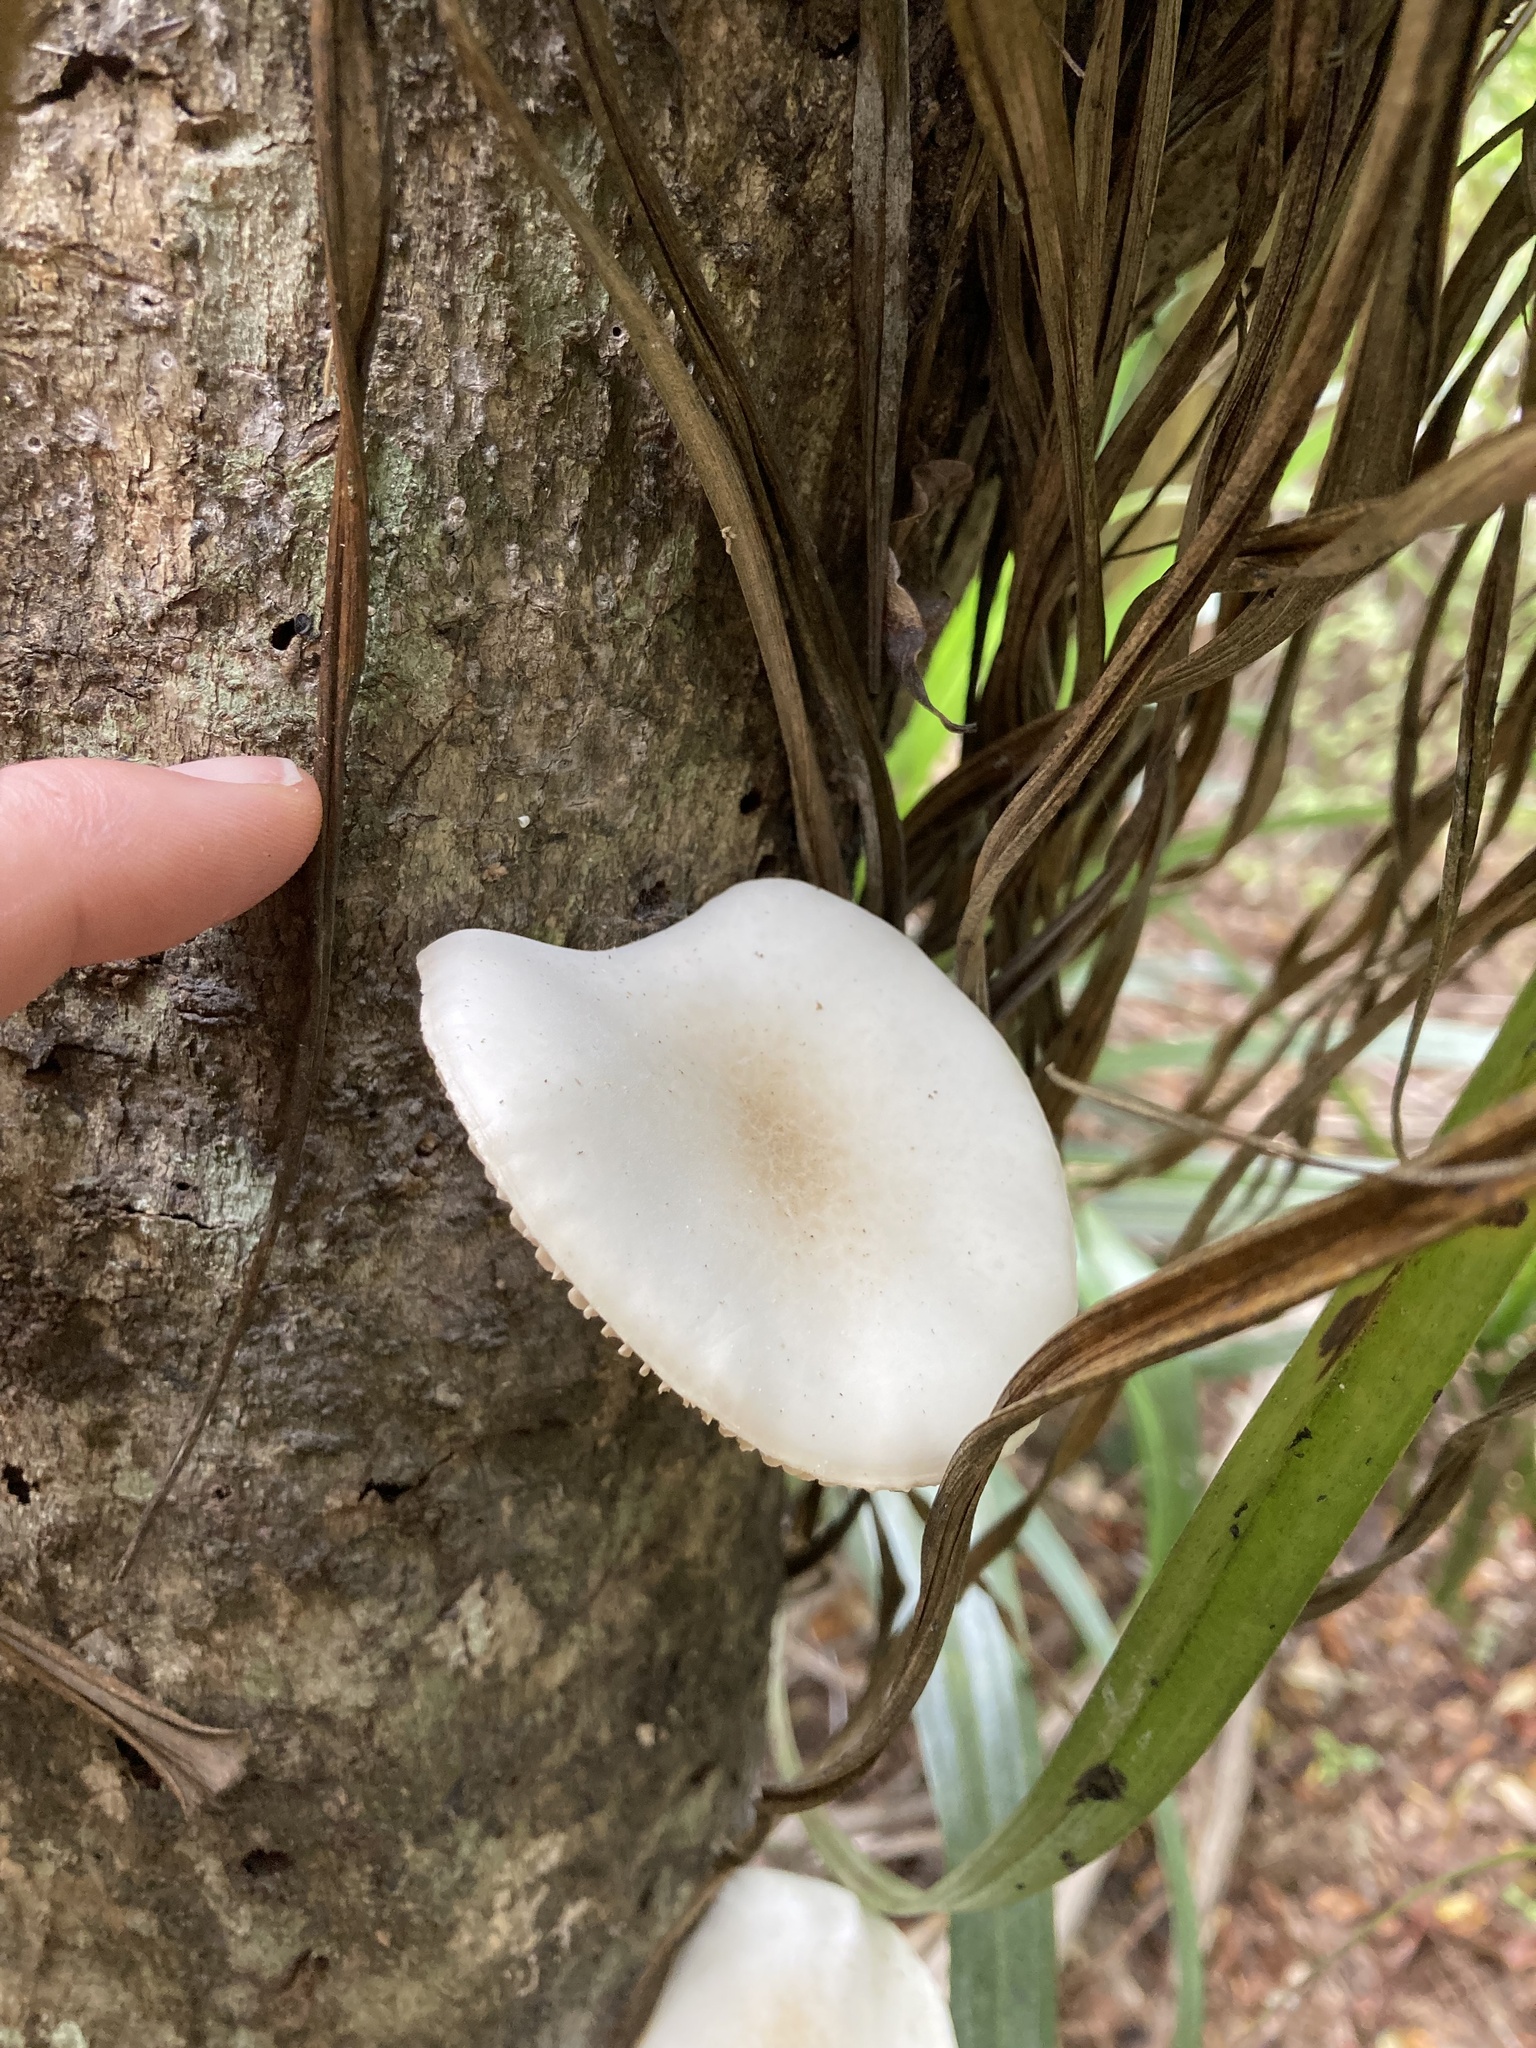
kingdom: Fungi
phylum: Basidiomycota
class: Agaricomycetes
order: Agaricales
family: Physalacriaceae
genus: Oudemansiella
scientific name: Oudemansiella australis
